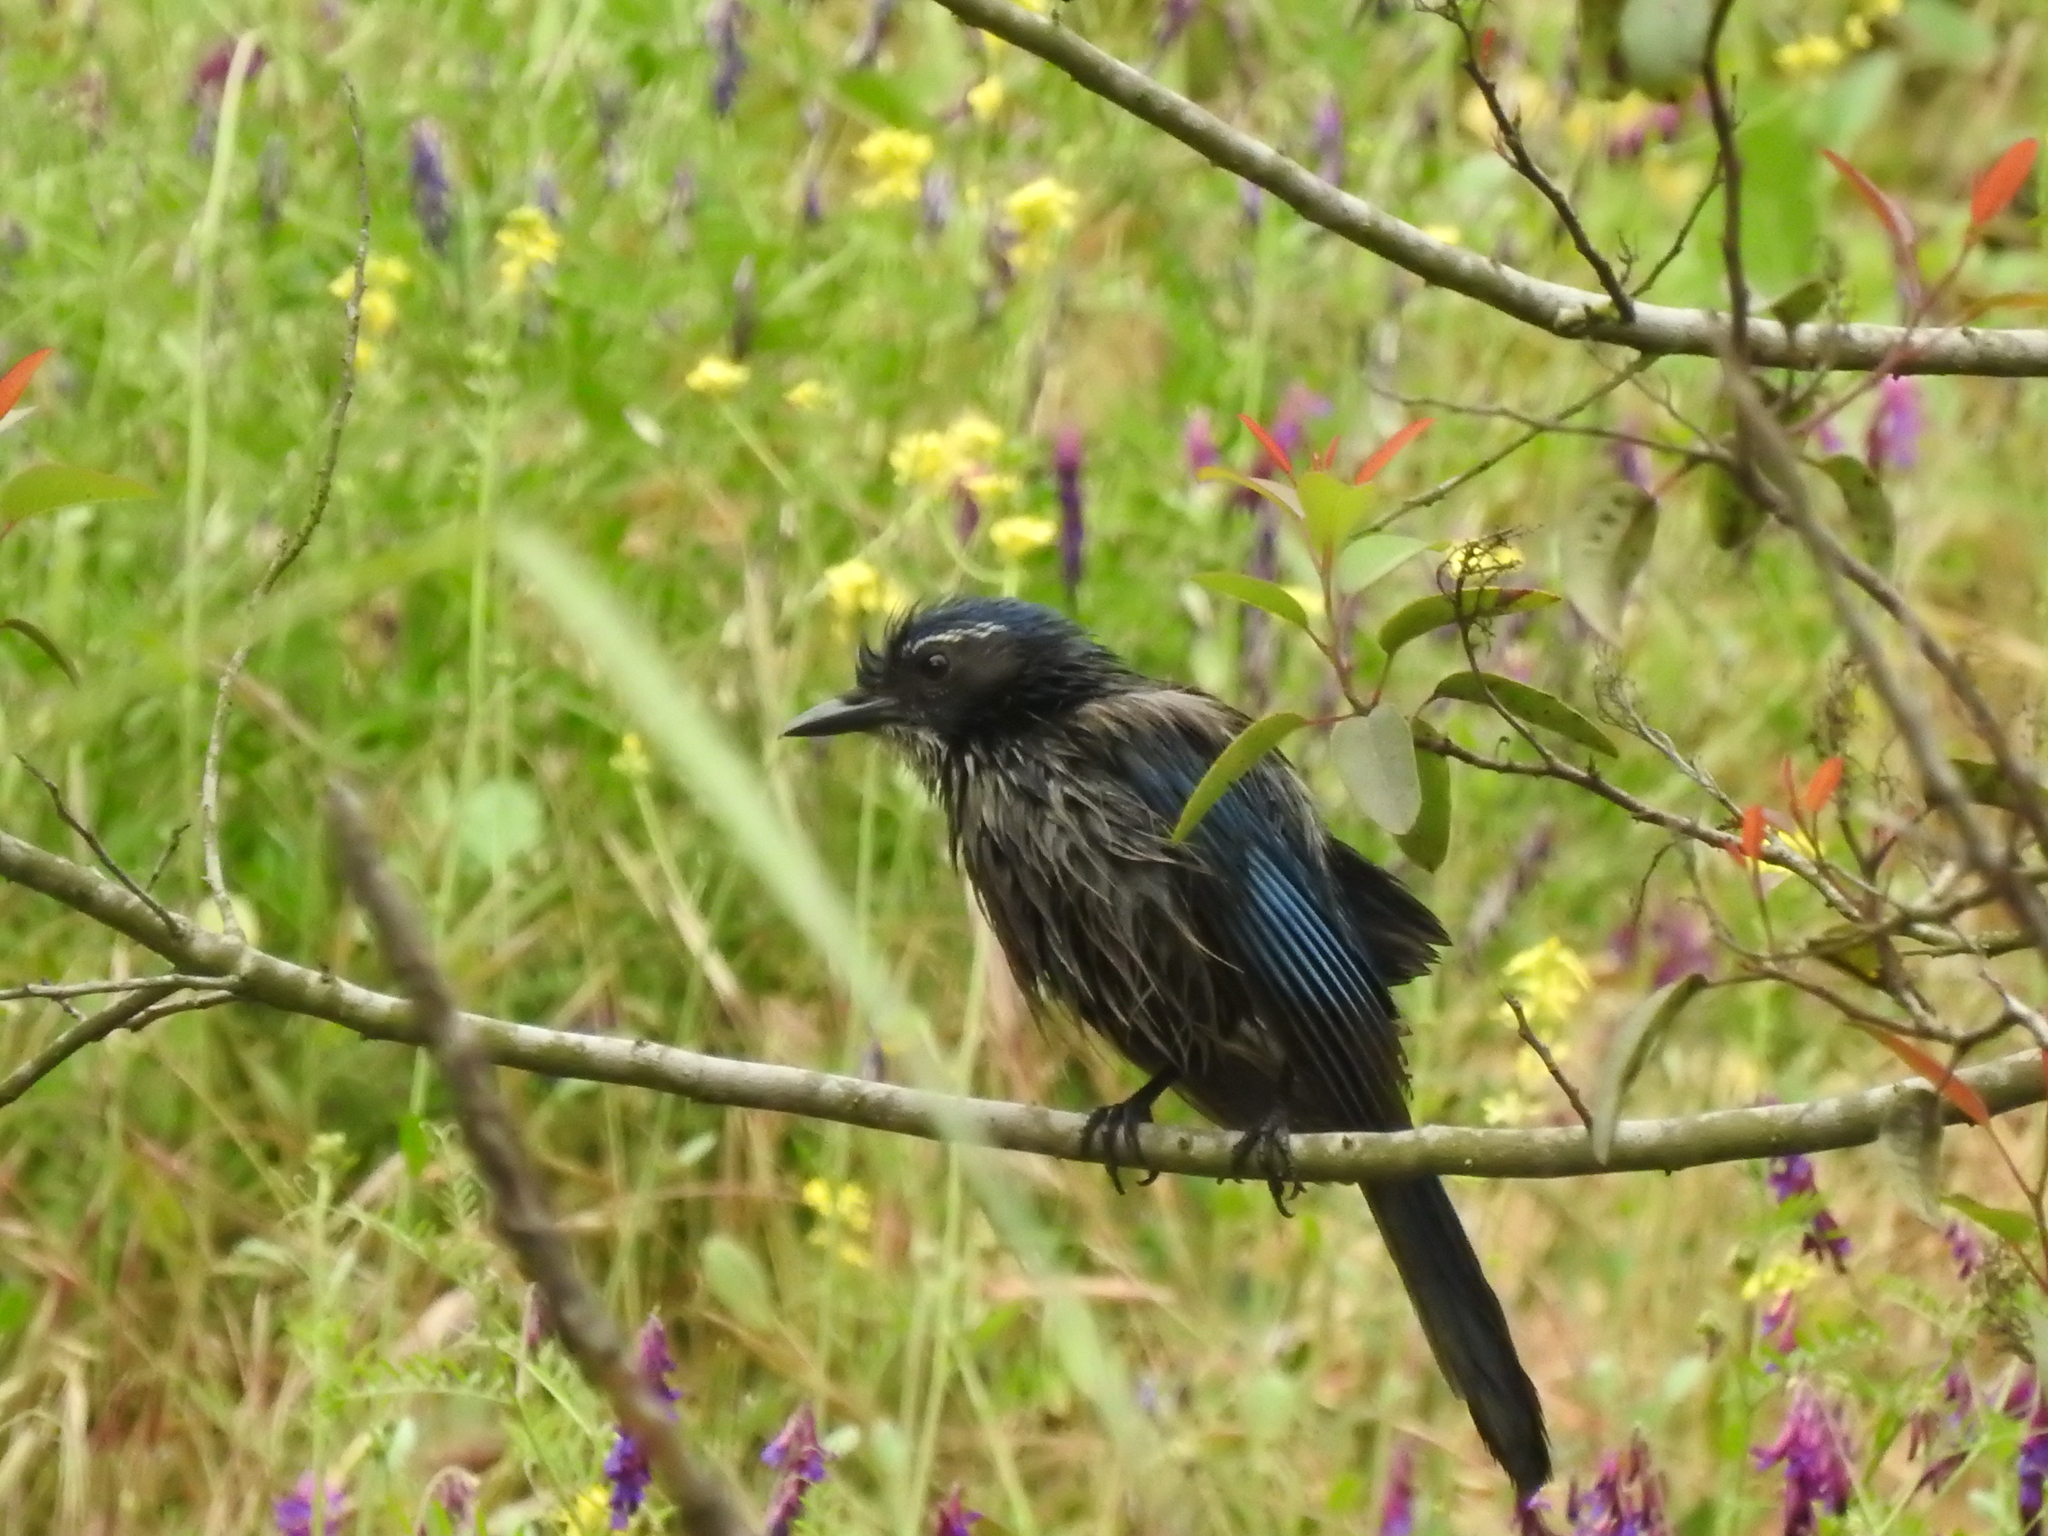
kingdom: Animalia
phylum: Chordata
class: Aves
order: Passeriformes
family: Corvidae
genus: Aphelocoma
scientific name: Aphelocoma californica
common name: California scrub-jay
